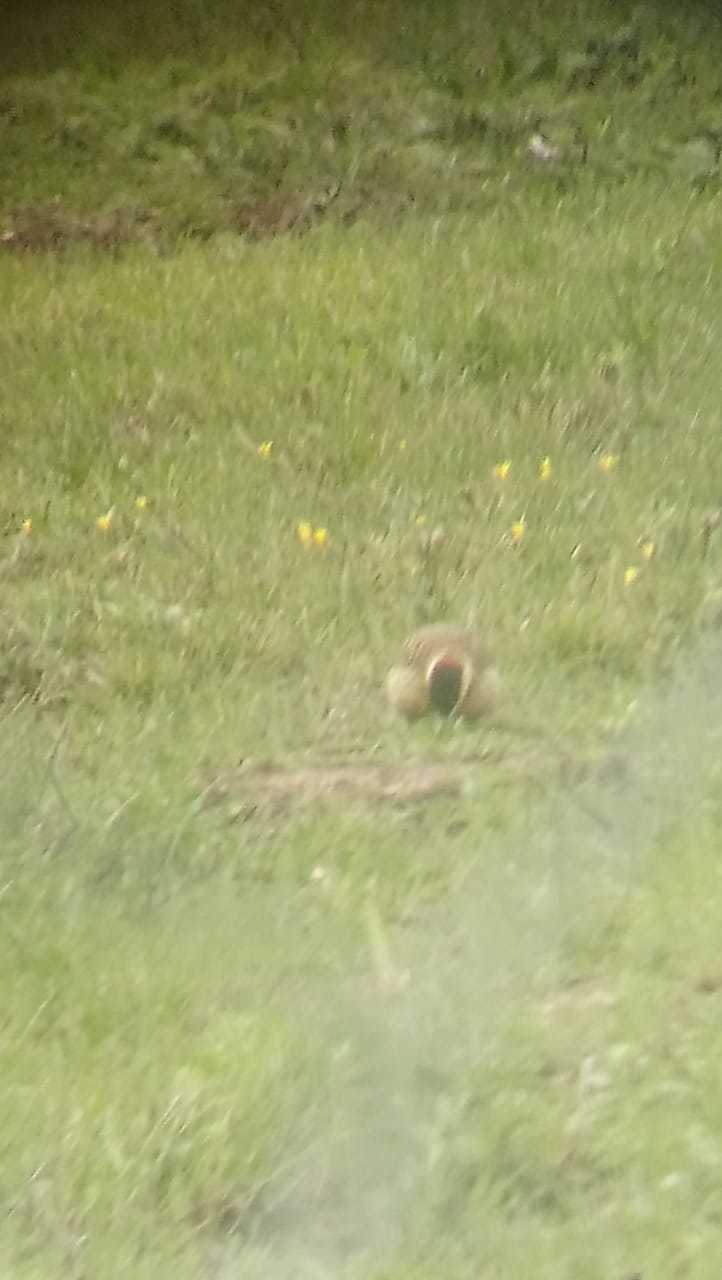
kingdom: Animalia
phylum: Chordata
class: Aves
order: Piciformes
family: Picidae
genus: Colaptes
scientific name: Colaptes melanochloros
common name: Green-barred woodpecker
